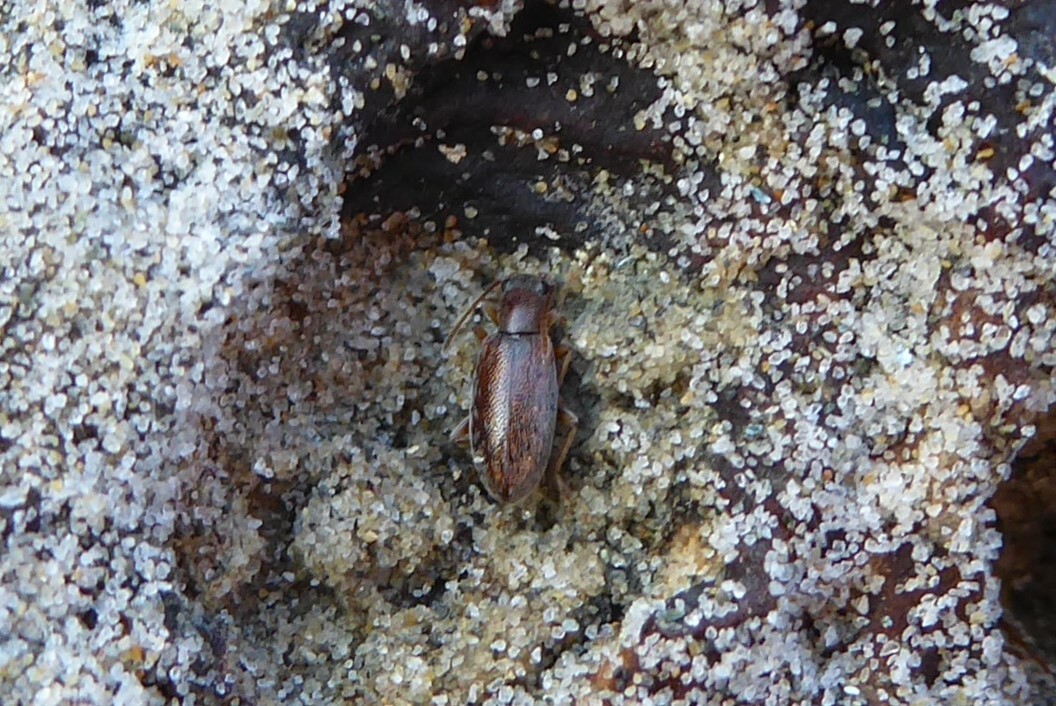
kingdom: Animalia
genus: Lagrioda
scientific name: Lagrioda brounii
